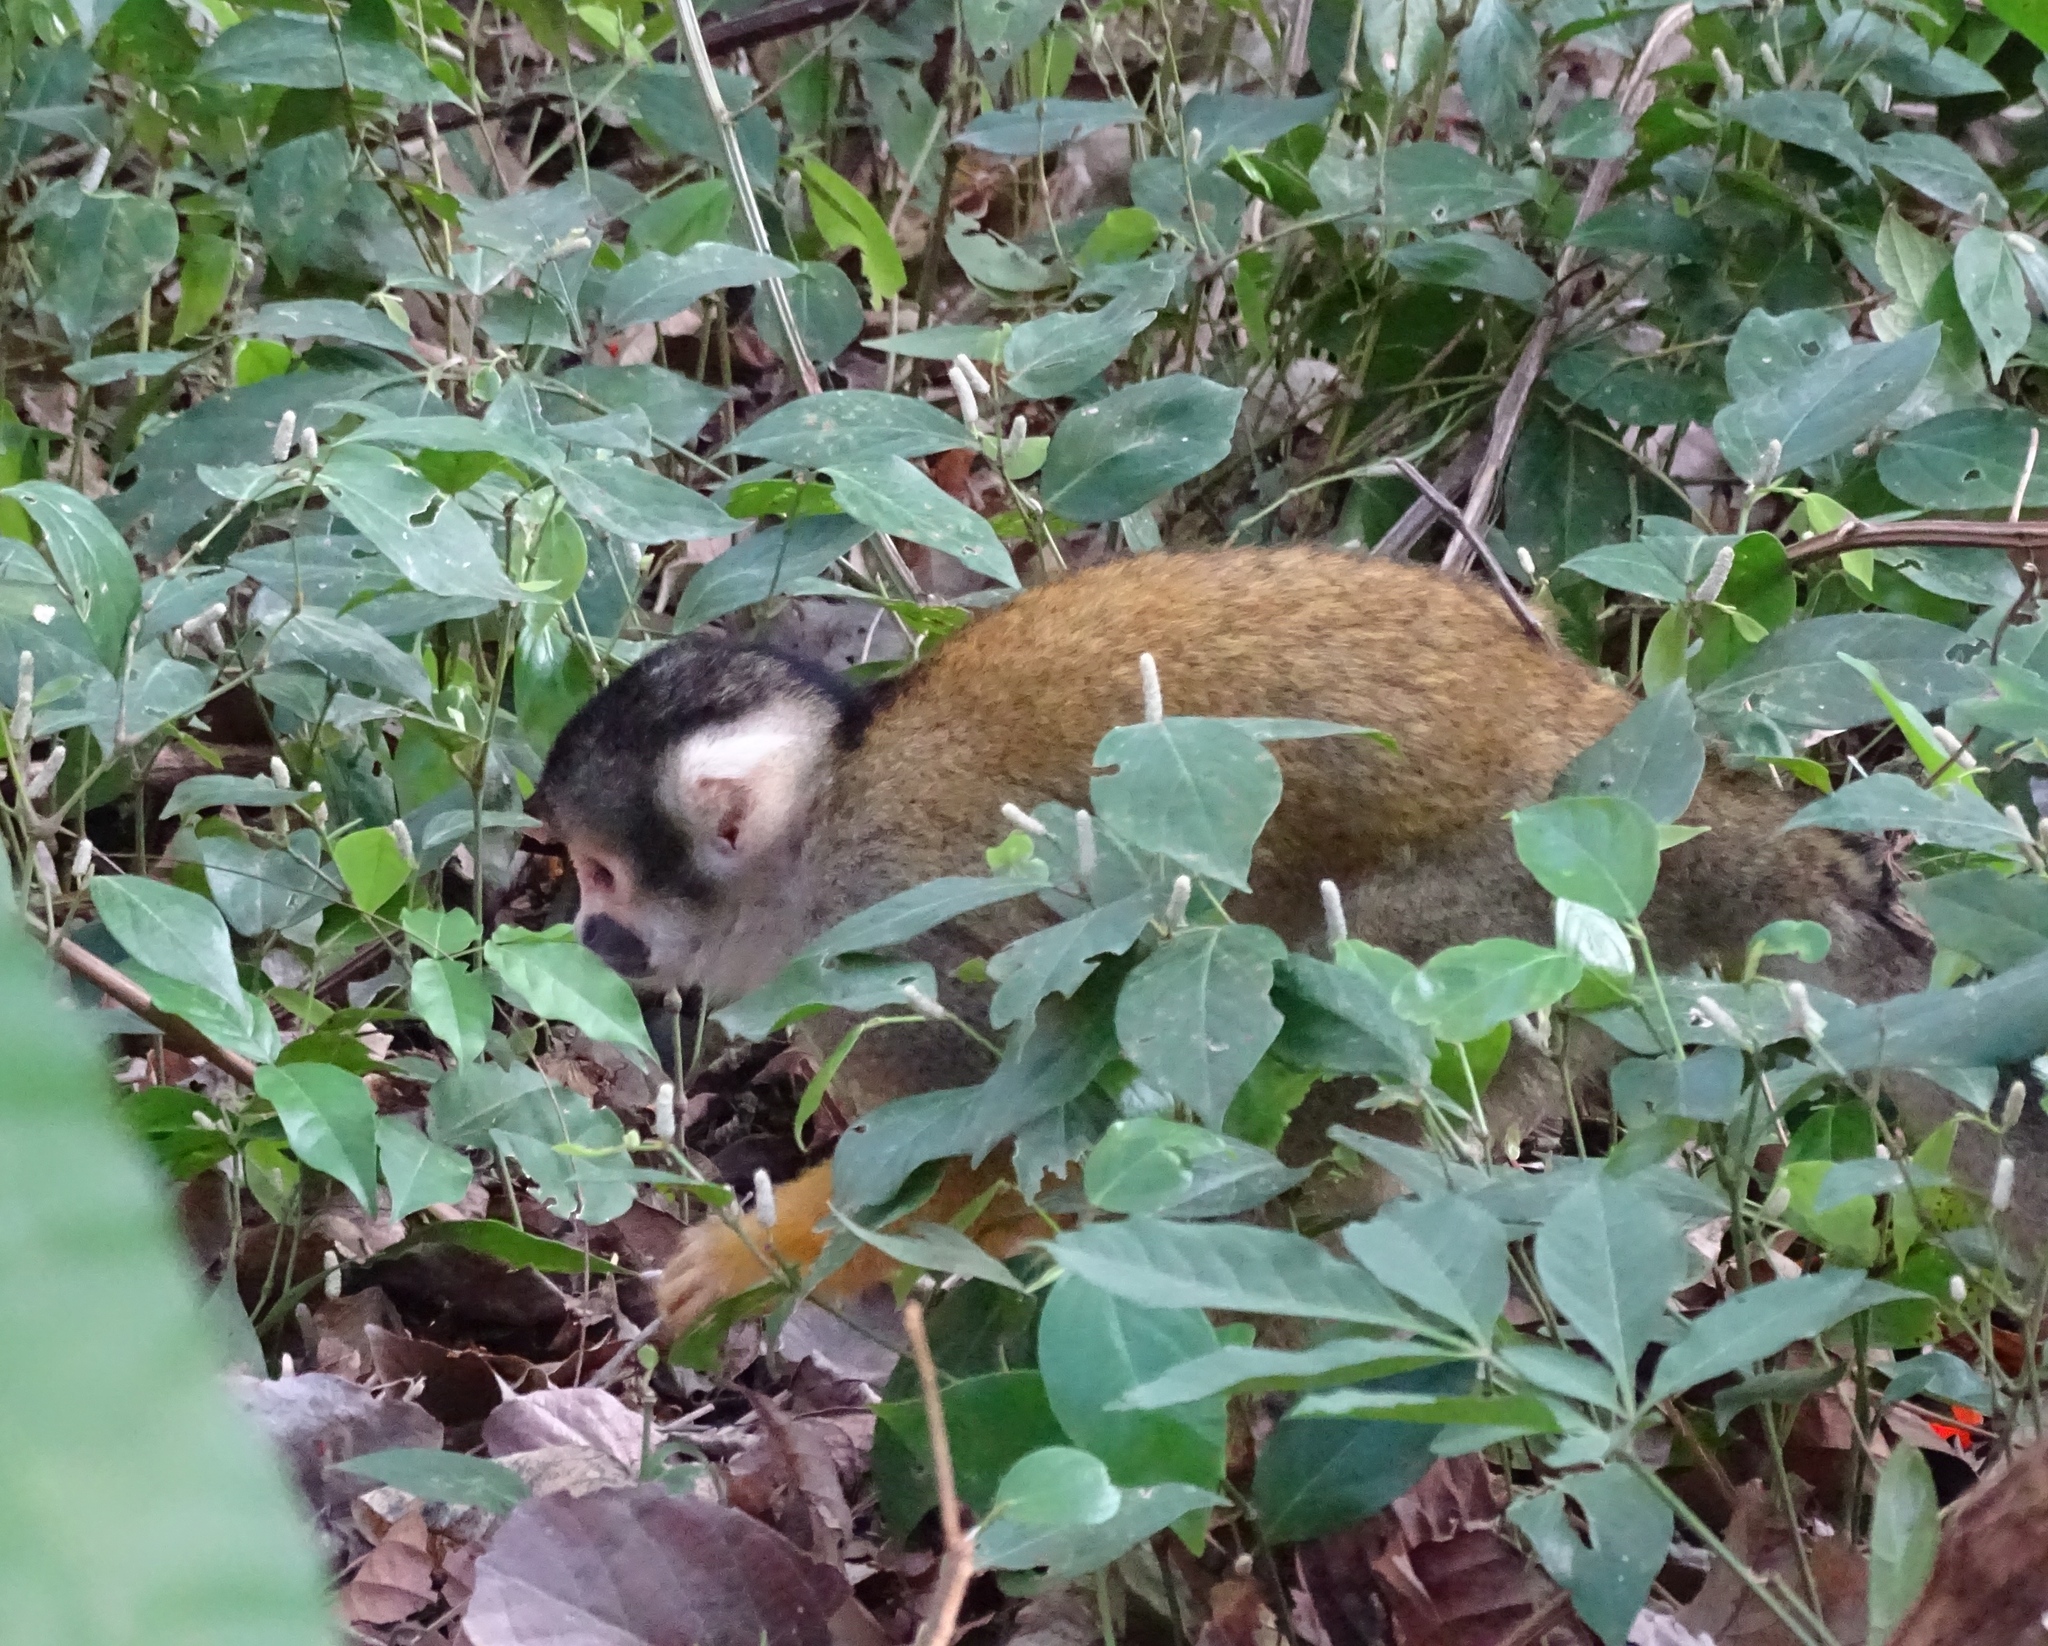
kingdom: Animalia
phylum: Chordata
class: Mammalia
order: Primates
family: Cebidae
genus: Saimiri
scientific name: Saimiri boliviensis
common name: Black-capped squirrel monkey
